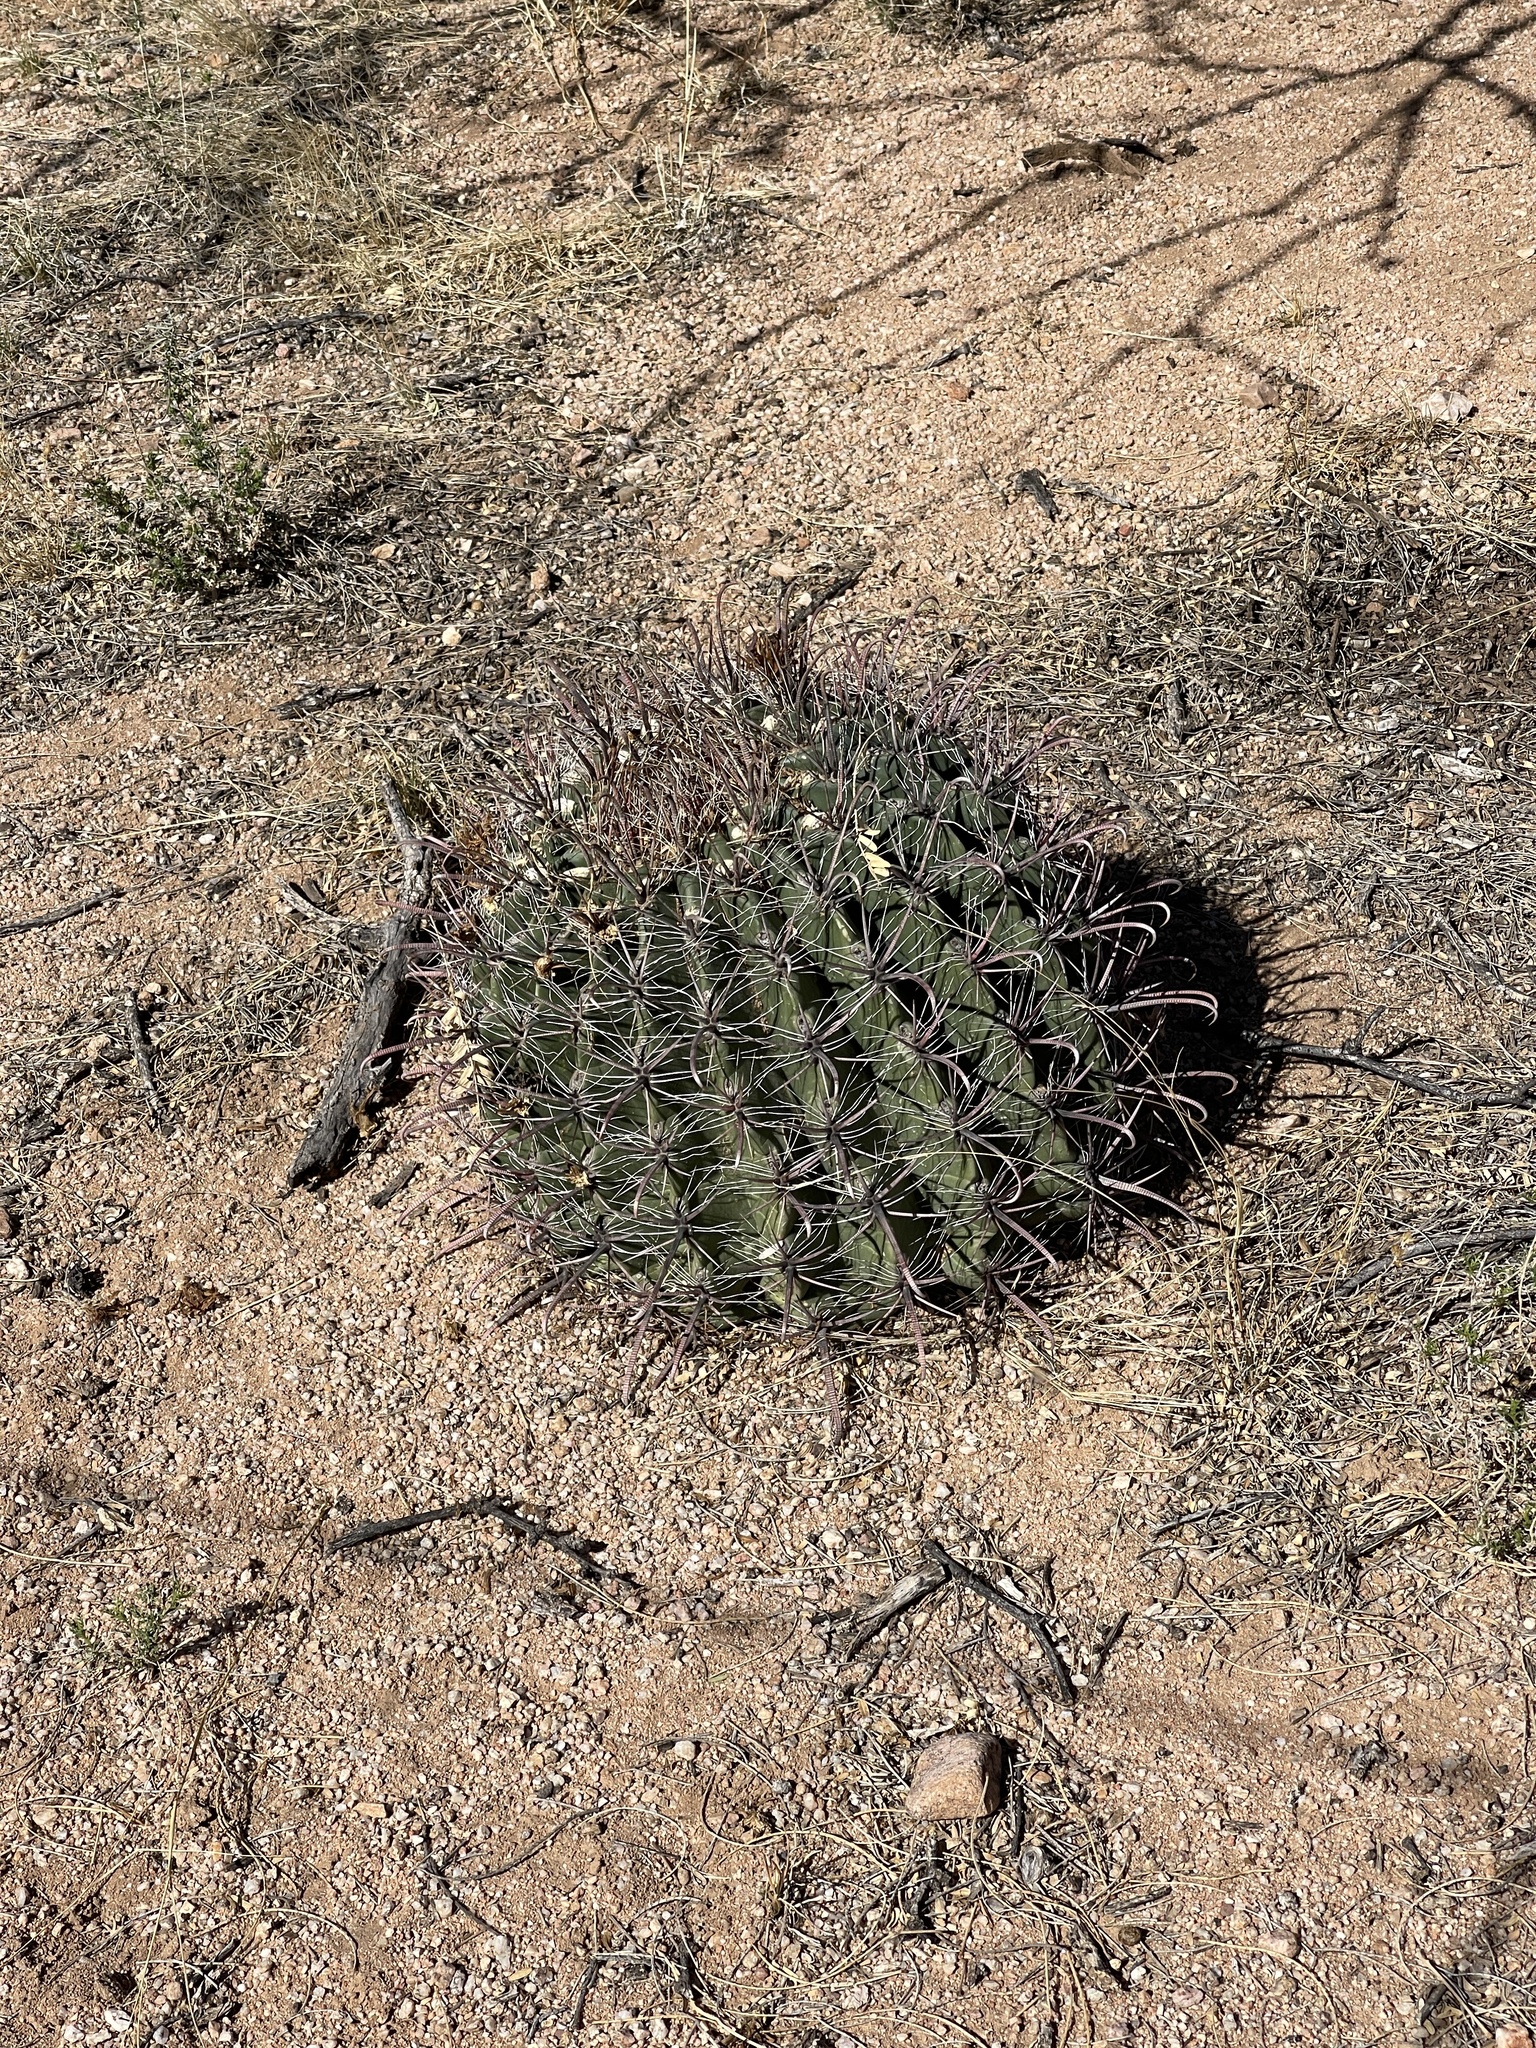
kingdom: Plantae
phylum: Tracheophyta
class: Magnoliopsida
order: Caryophyllales
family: Cactaceae
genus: Ferocactus
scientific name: Ferocactus wislizeni
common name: Candy barrel cactus
